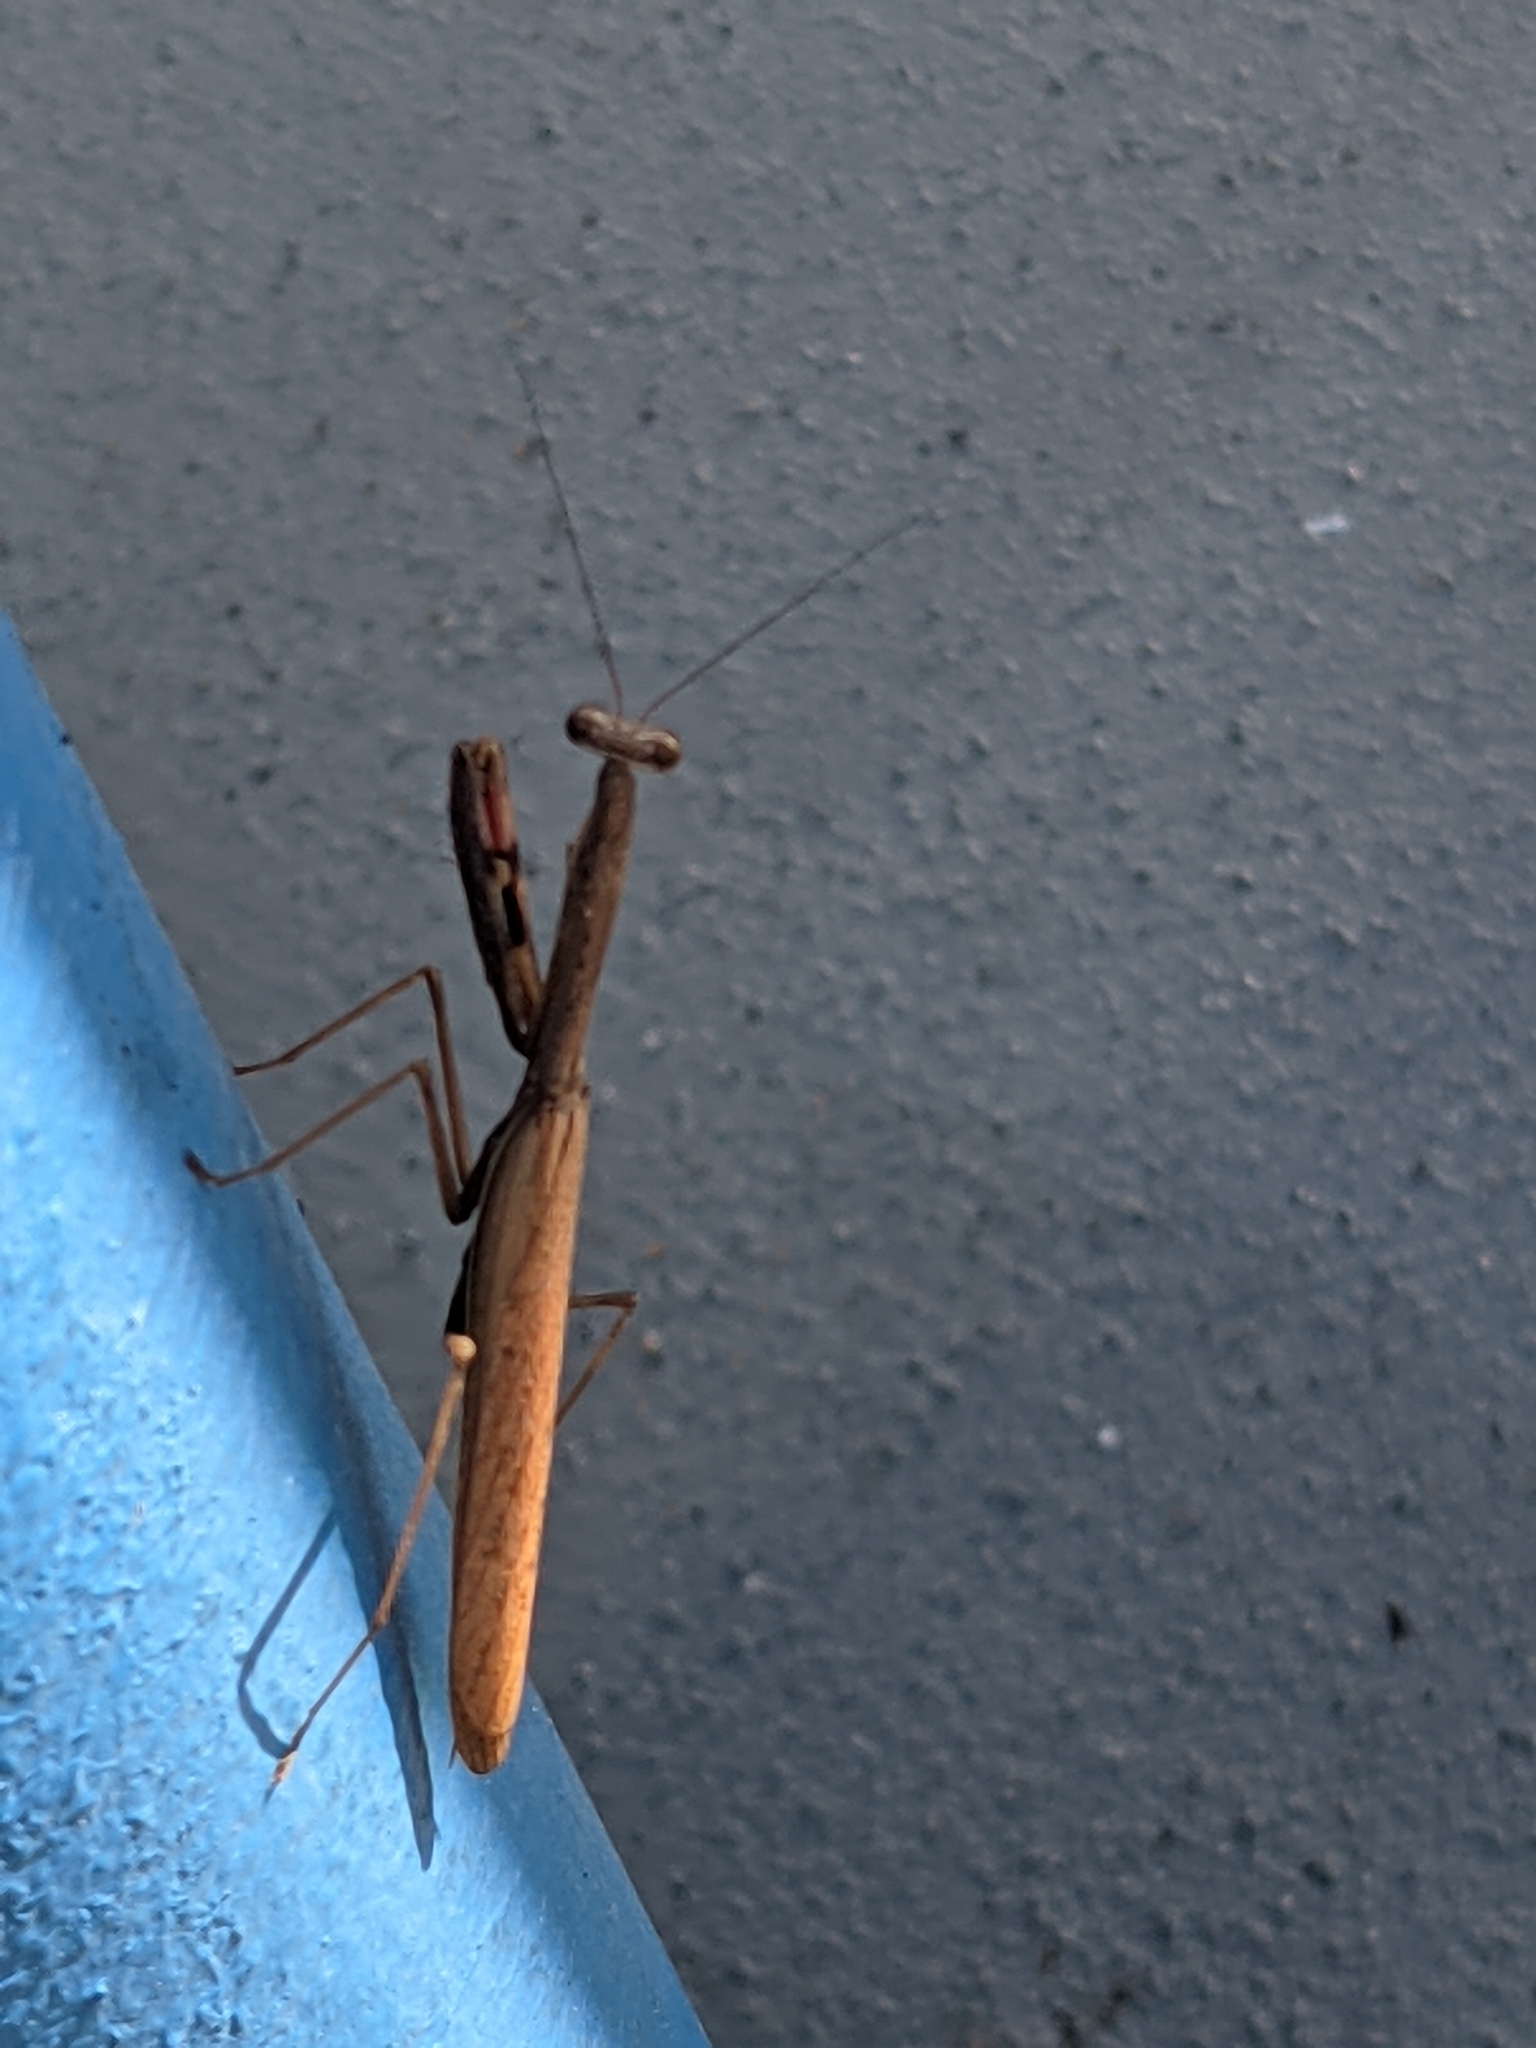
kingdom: Animalia
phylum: Arthropoda
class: Insecta
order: Mantodea
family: Mantidae
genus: Stagmomantis
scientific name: Stagmomantis carolina
